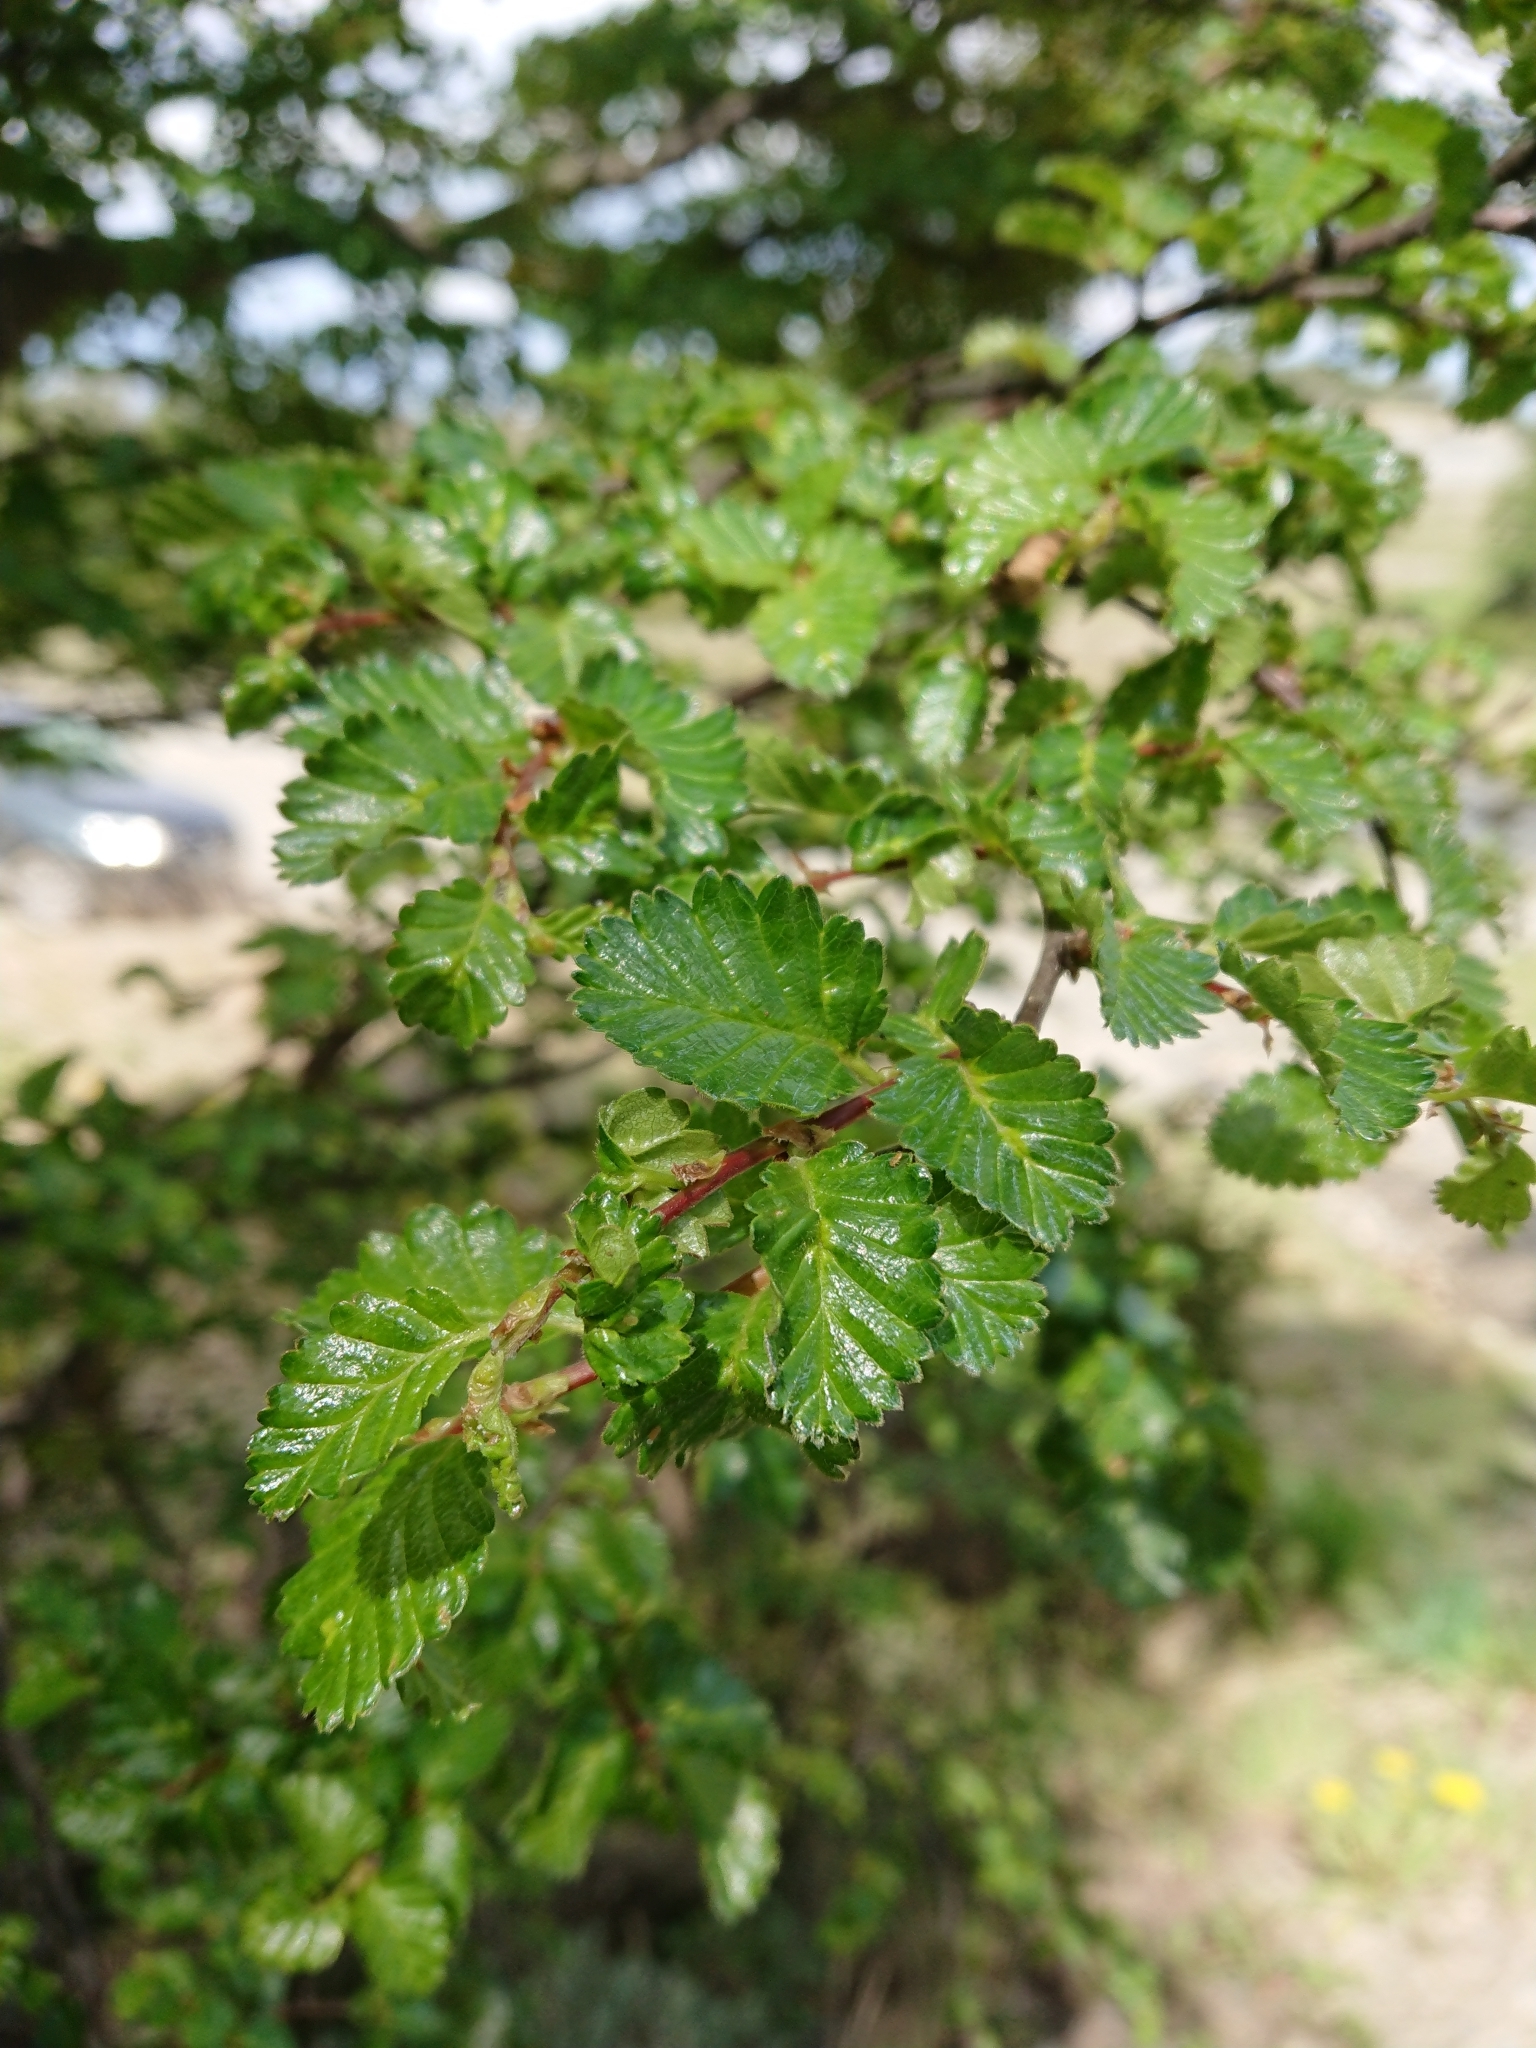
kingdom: Plantae
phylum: Tracheophyta
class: Magnoliopsida
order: Fagales
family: Nothofagaceae
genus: Nothofagus
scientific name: Nothofagus pumilio
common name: Lenga beech
